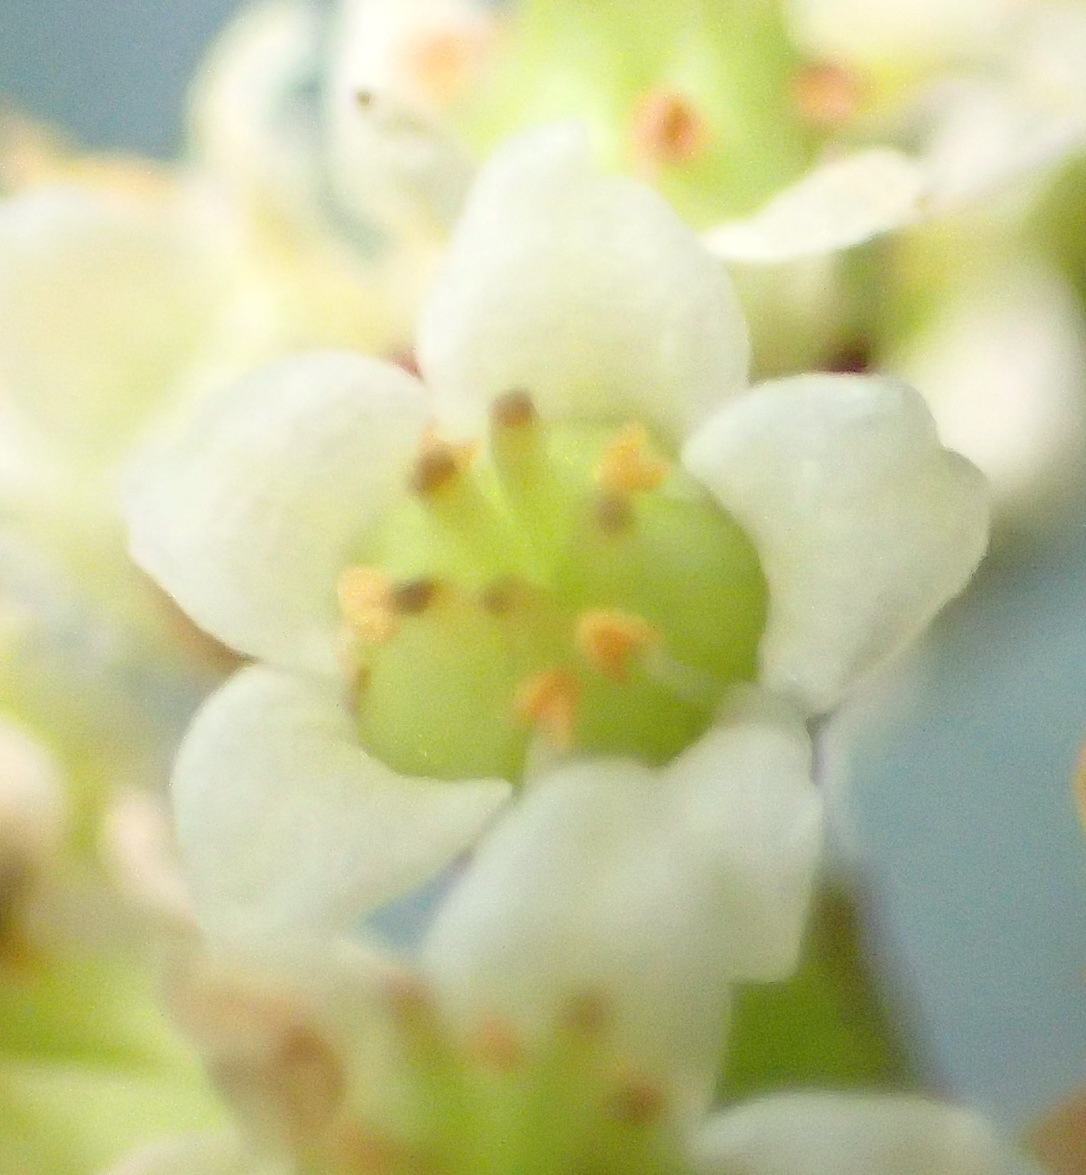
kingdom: Plantae
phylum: Tracheophyta
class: Magnoliopsida
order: Saxifragales
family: Crassulaceae
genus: Crassula
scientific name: Crassula perforata
